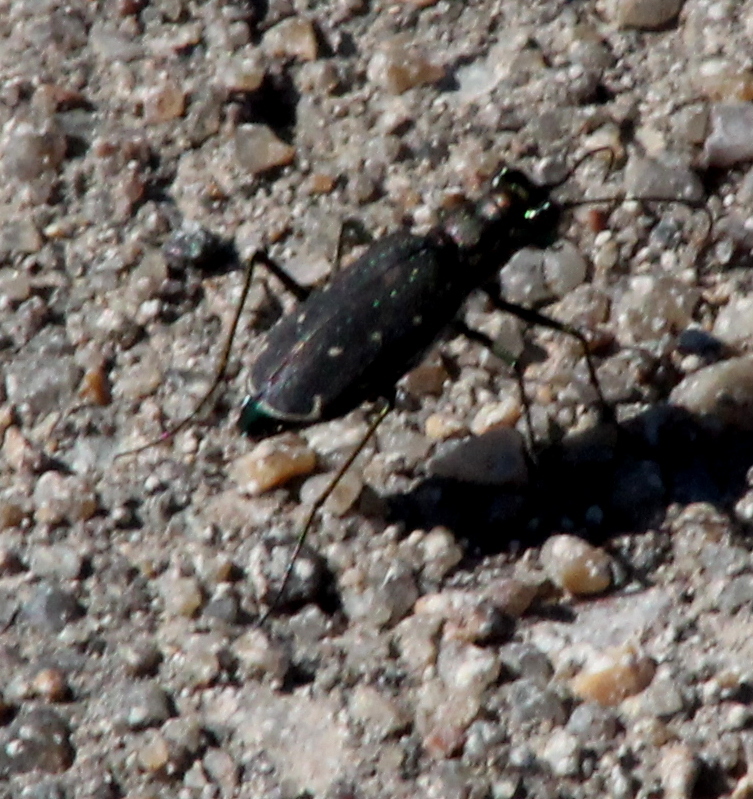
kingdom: Animalia
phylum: Arthropoda
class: Insecta
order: Coleoptera
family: Carabidae
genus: Cicindela
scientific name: Cicindela punctulata
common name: Punctured tiger beetle
